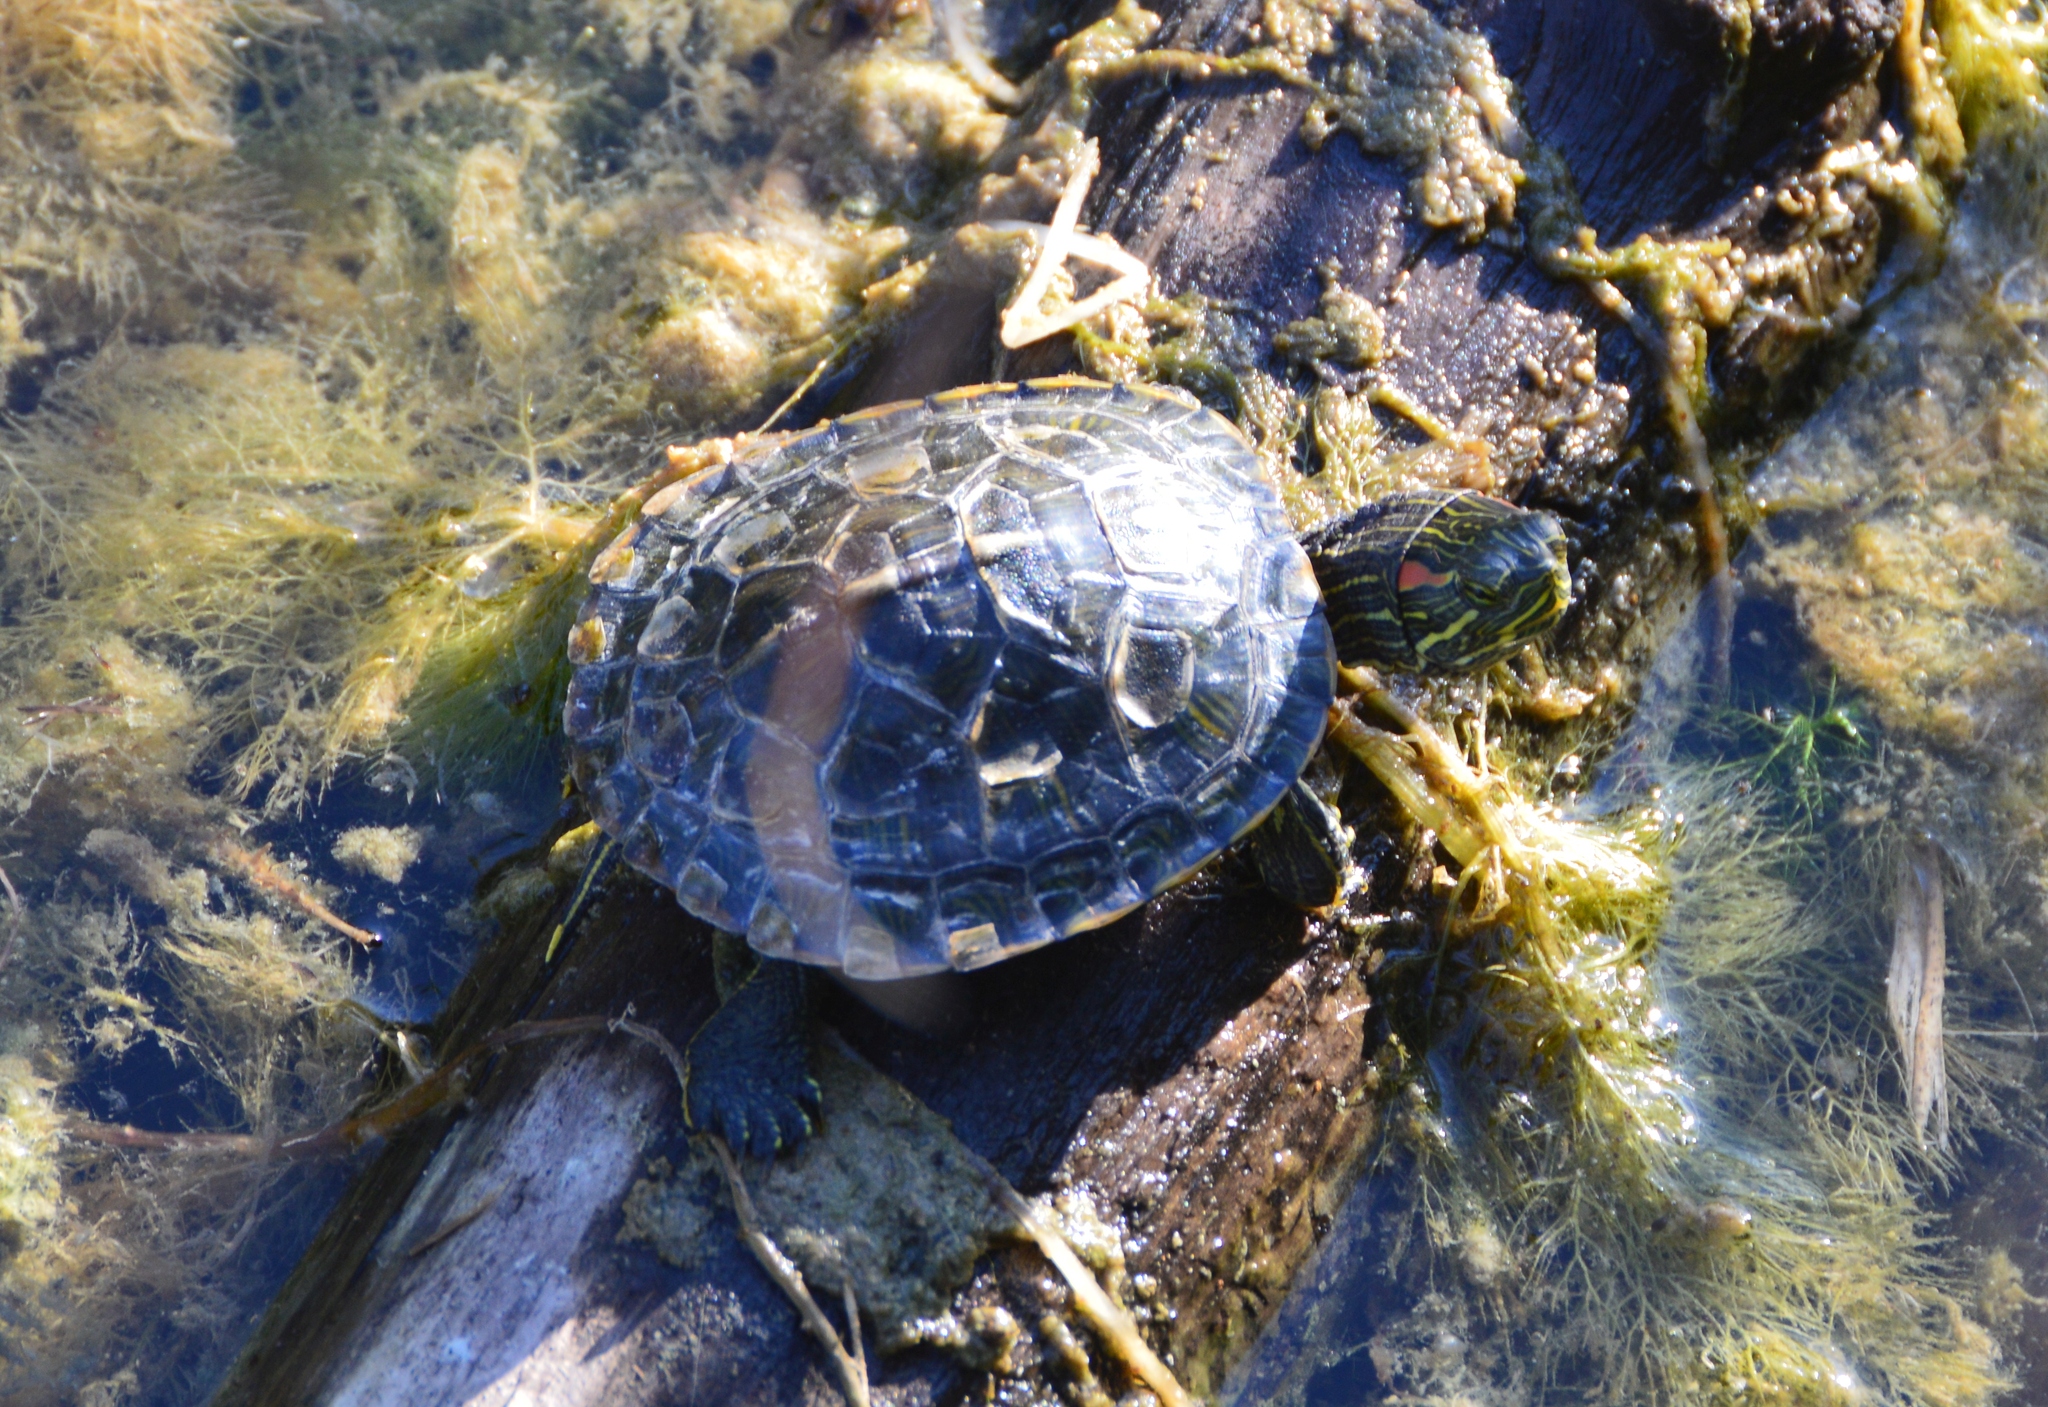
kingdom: Animalia
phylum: Chordata
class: Testudines
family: Emydidae
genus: Trachemys
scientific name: Trachemys scripta
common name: Slider
